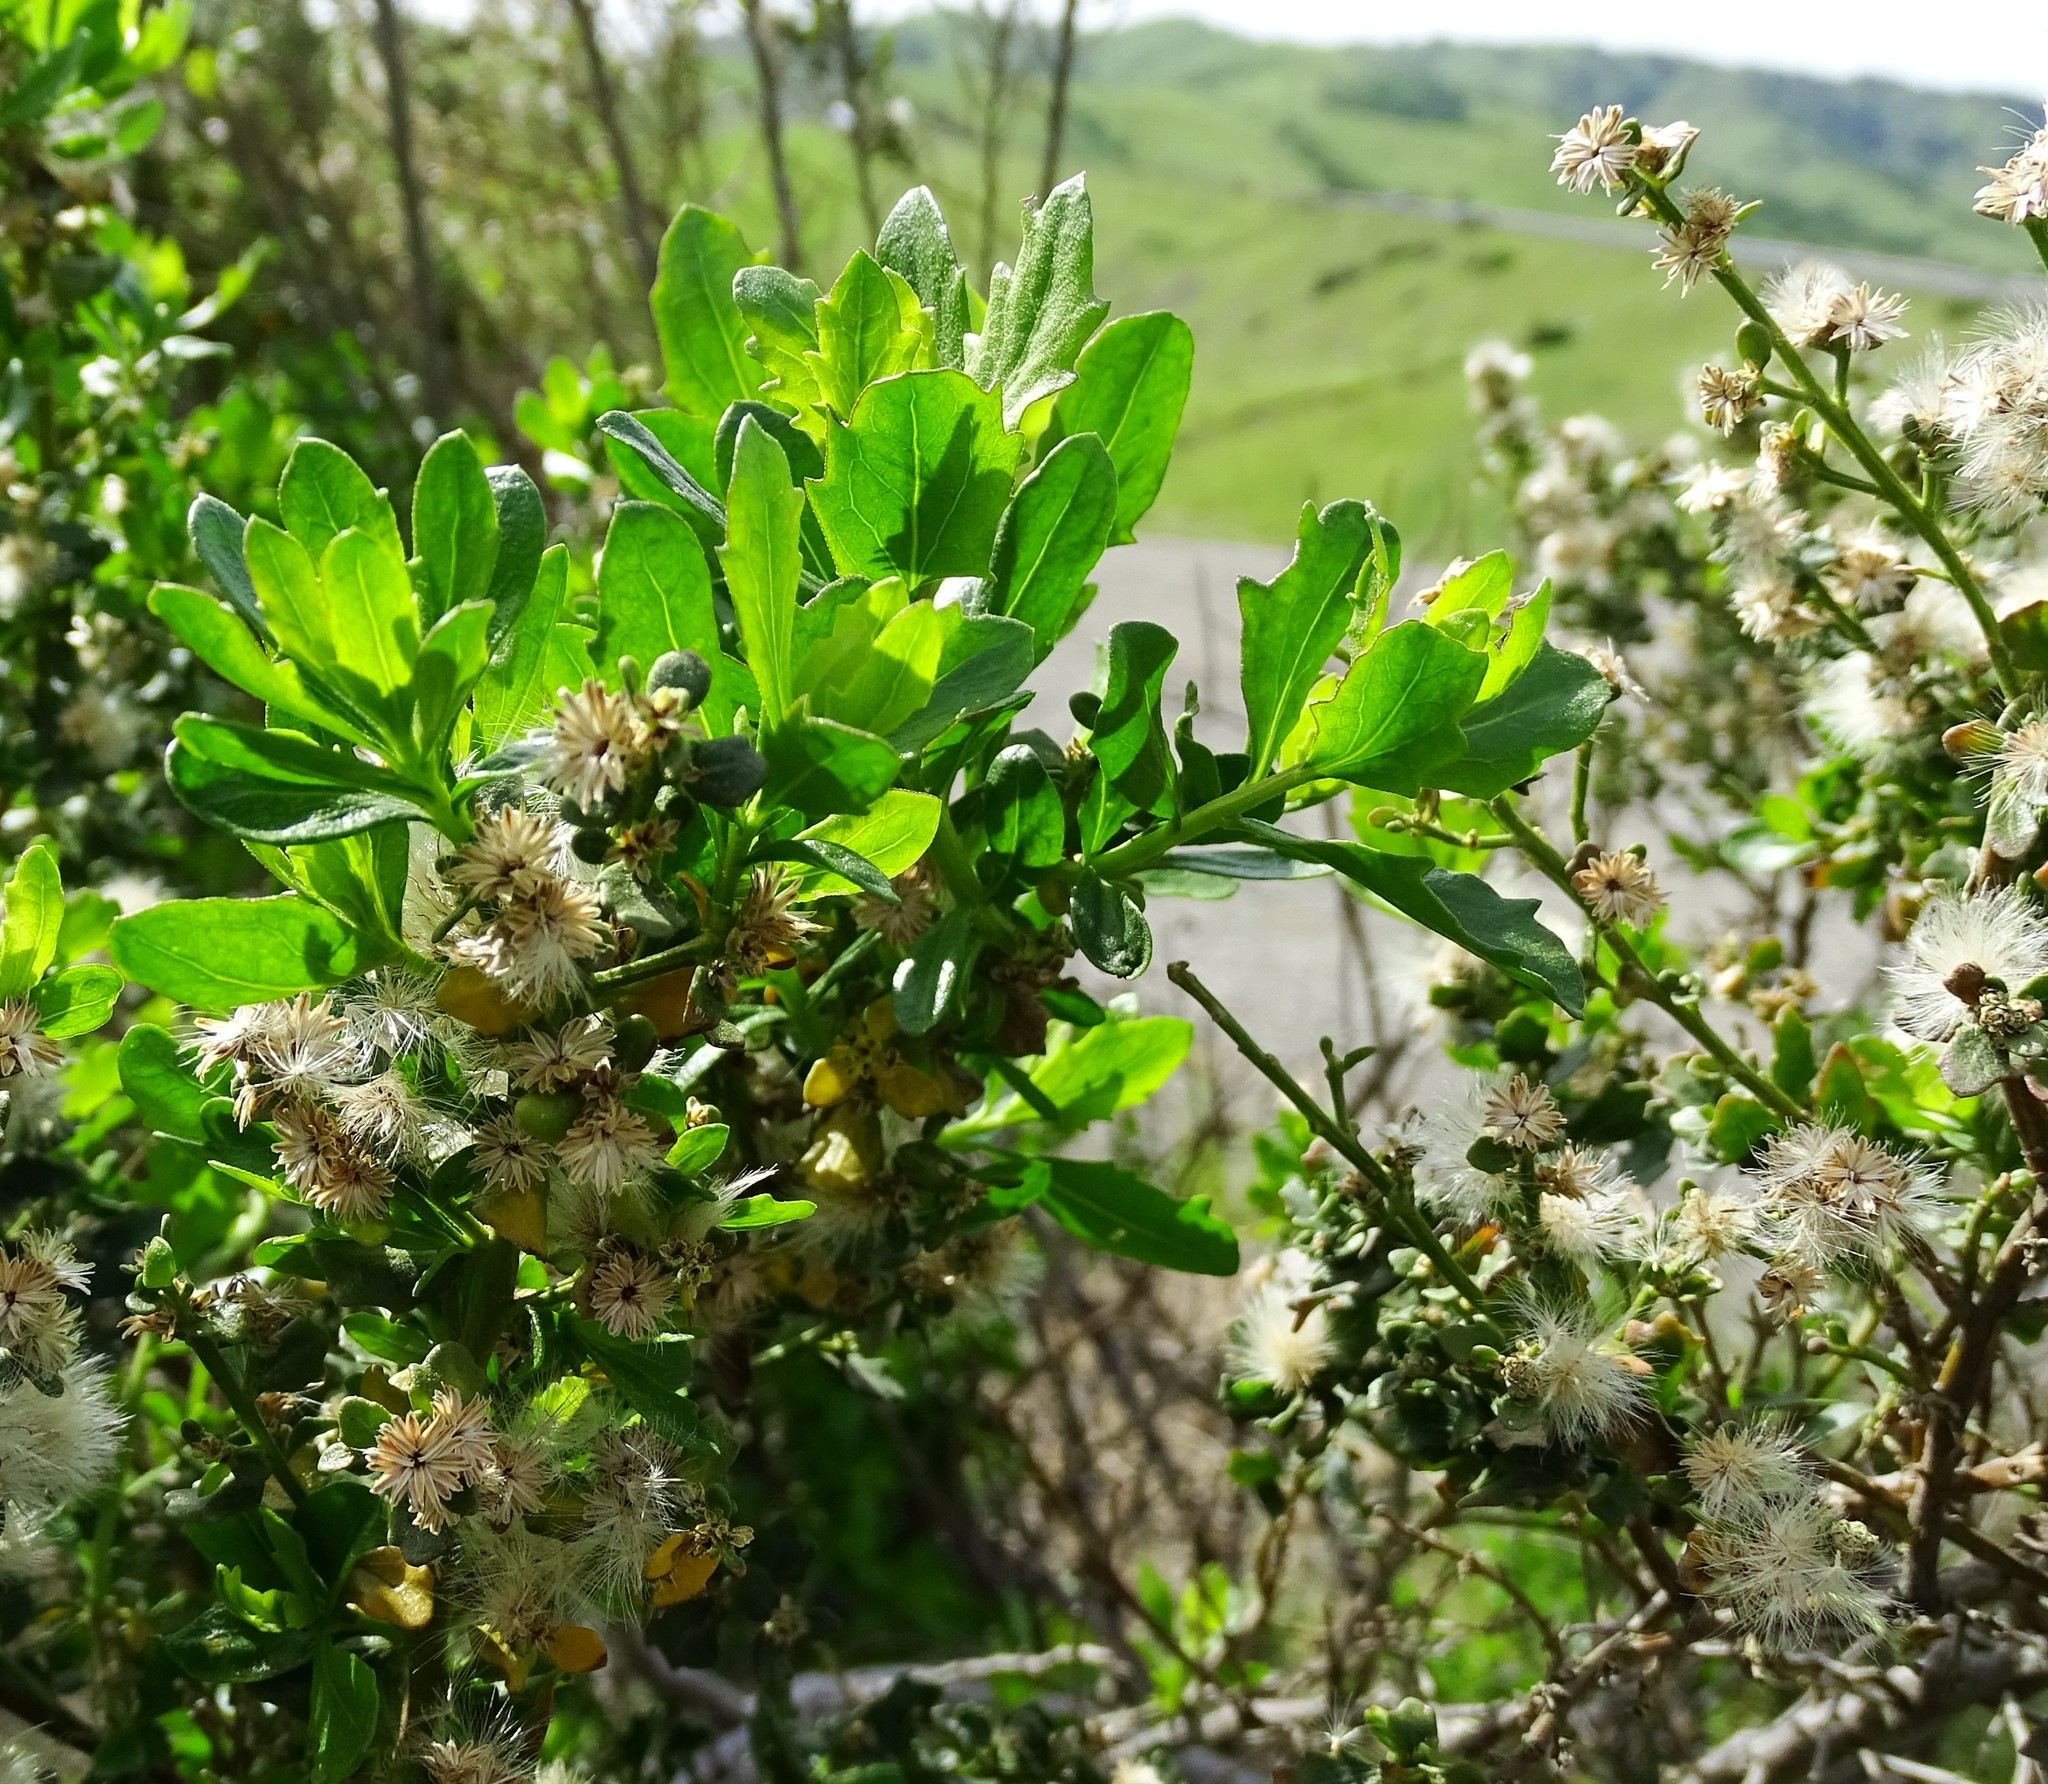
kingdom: Plantae
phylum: Tracheophyta
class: Magnoliopsida
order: Asterales
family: Asteraceae
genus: Baccharis
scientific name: Baccharis pilularis
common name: Coyotebrush
